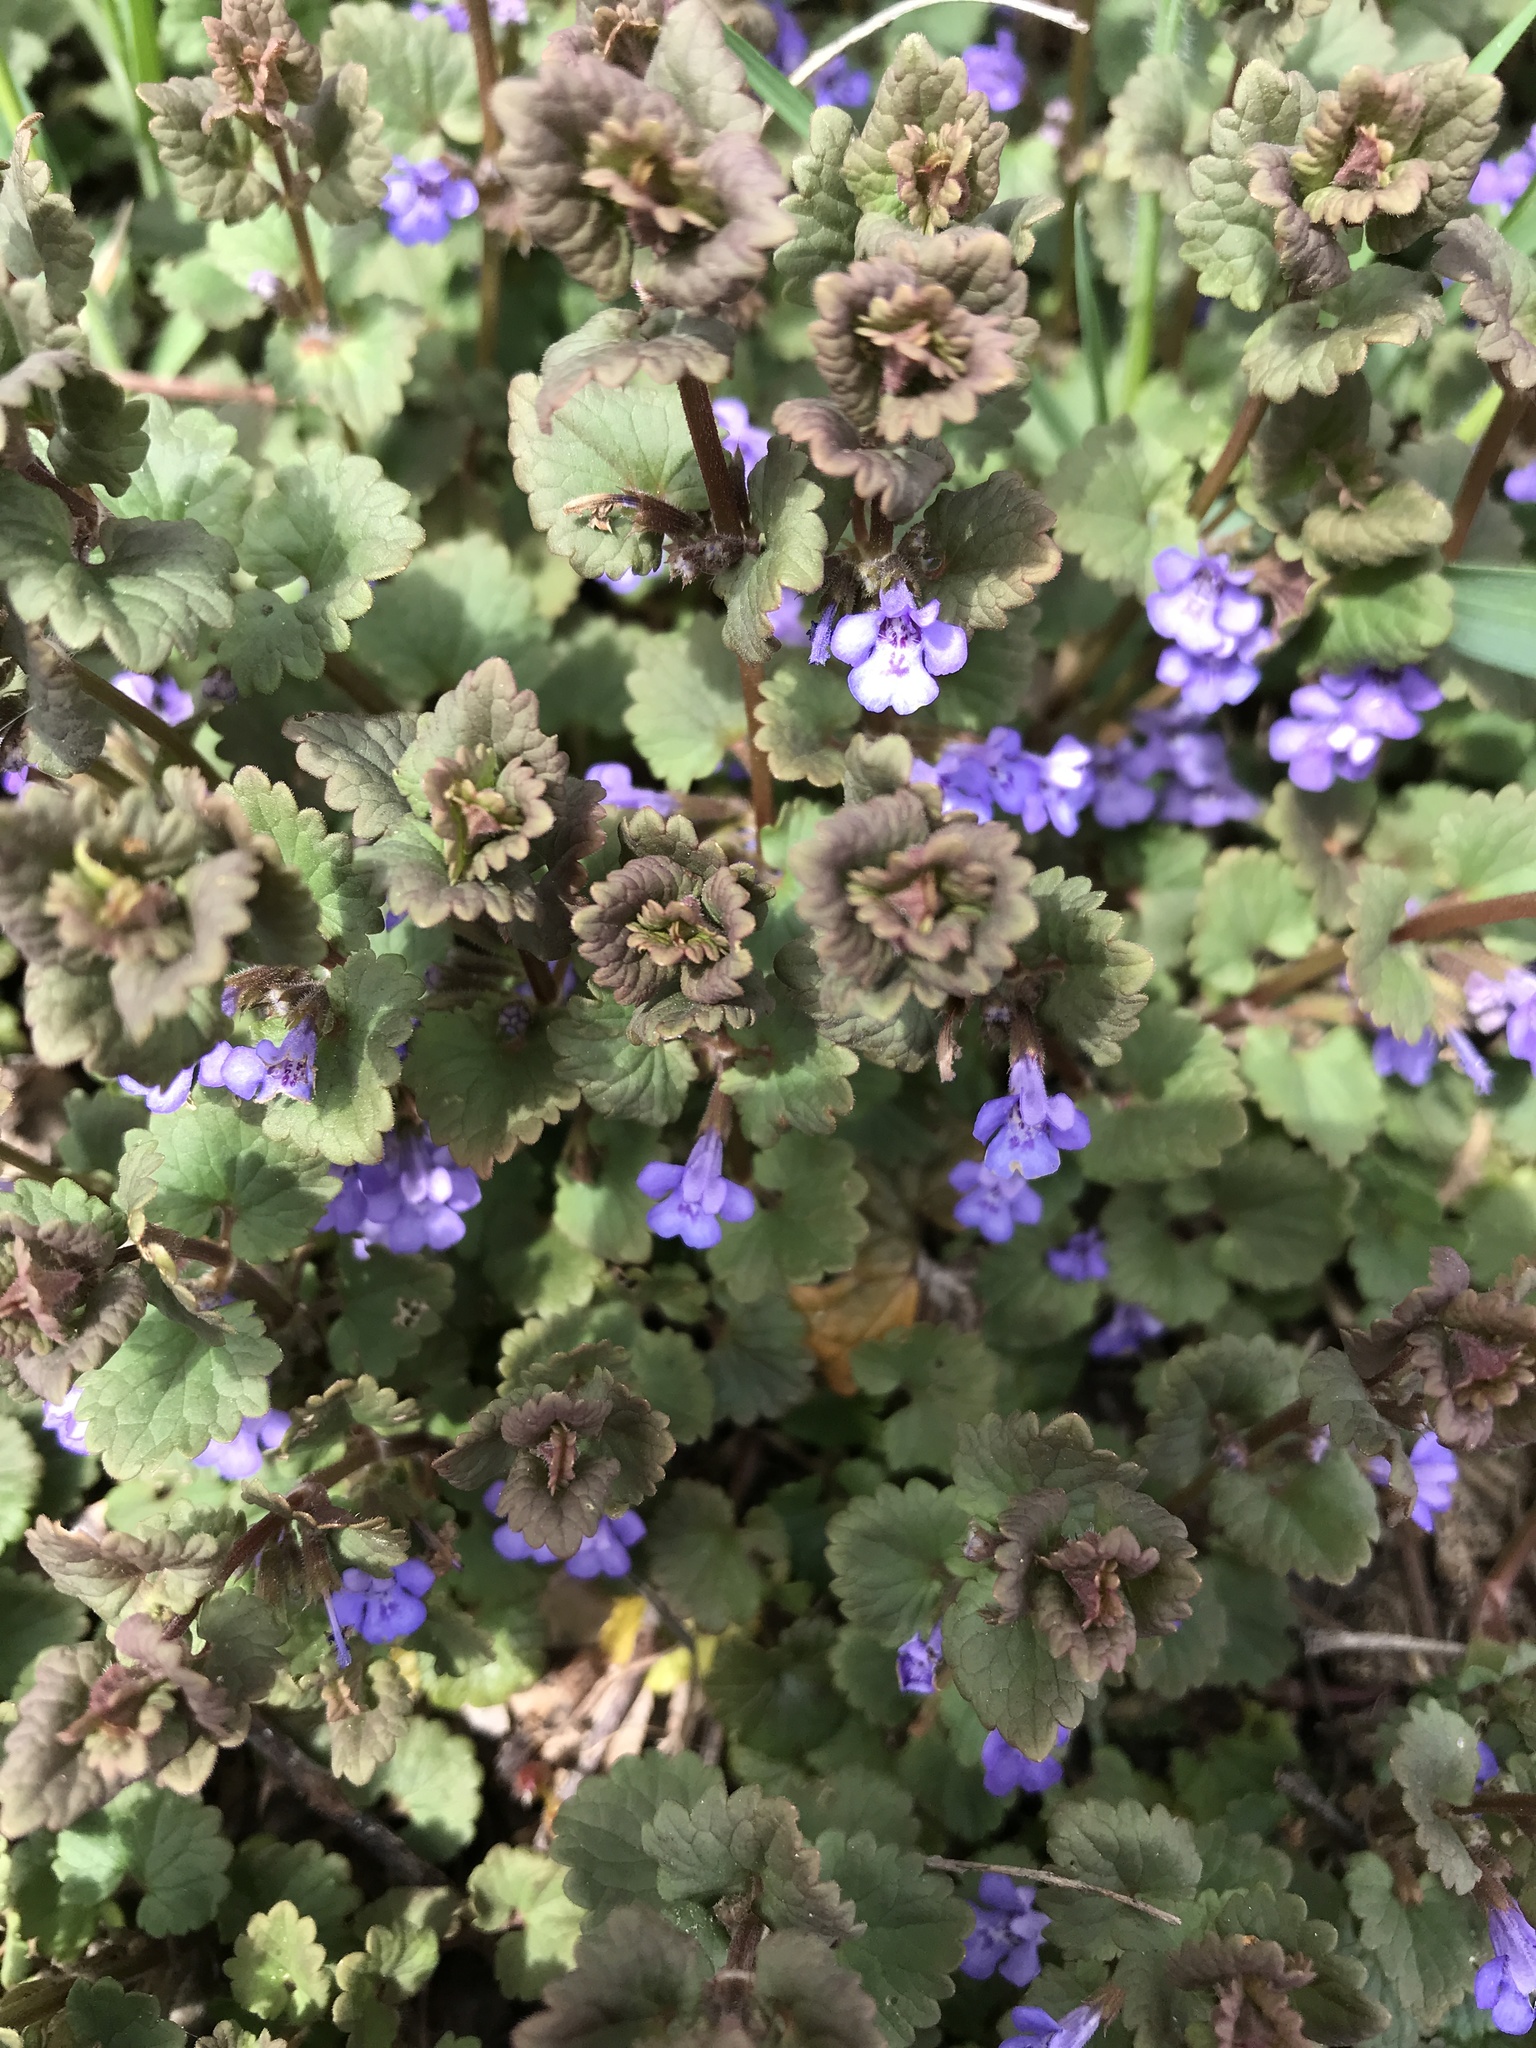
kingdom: Plantae
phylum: Tracheophyta
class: Magnoliopsida
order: Lamiales
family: Lamiaceae
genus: Glechoma
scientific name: Glechoma hederacea
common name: Ground ivy
